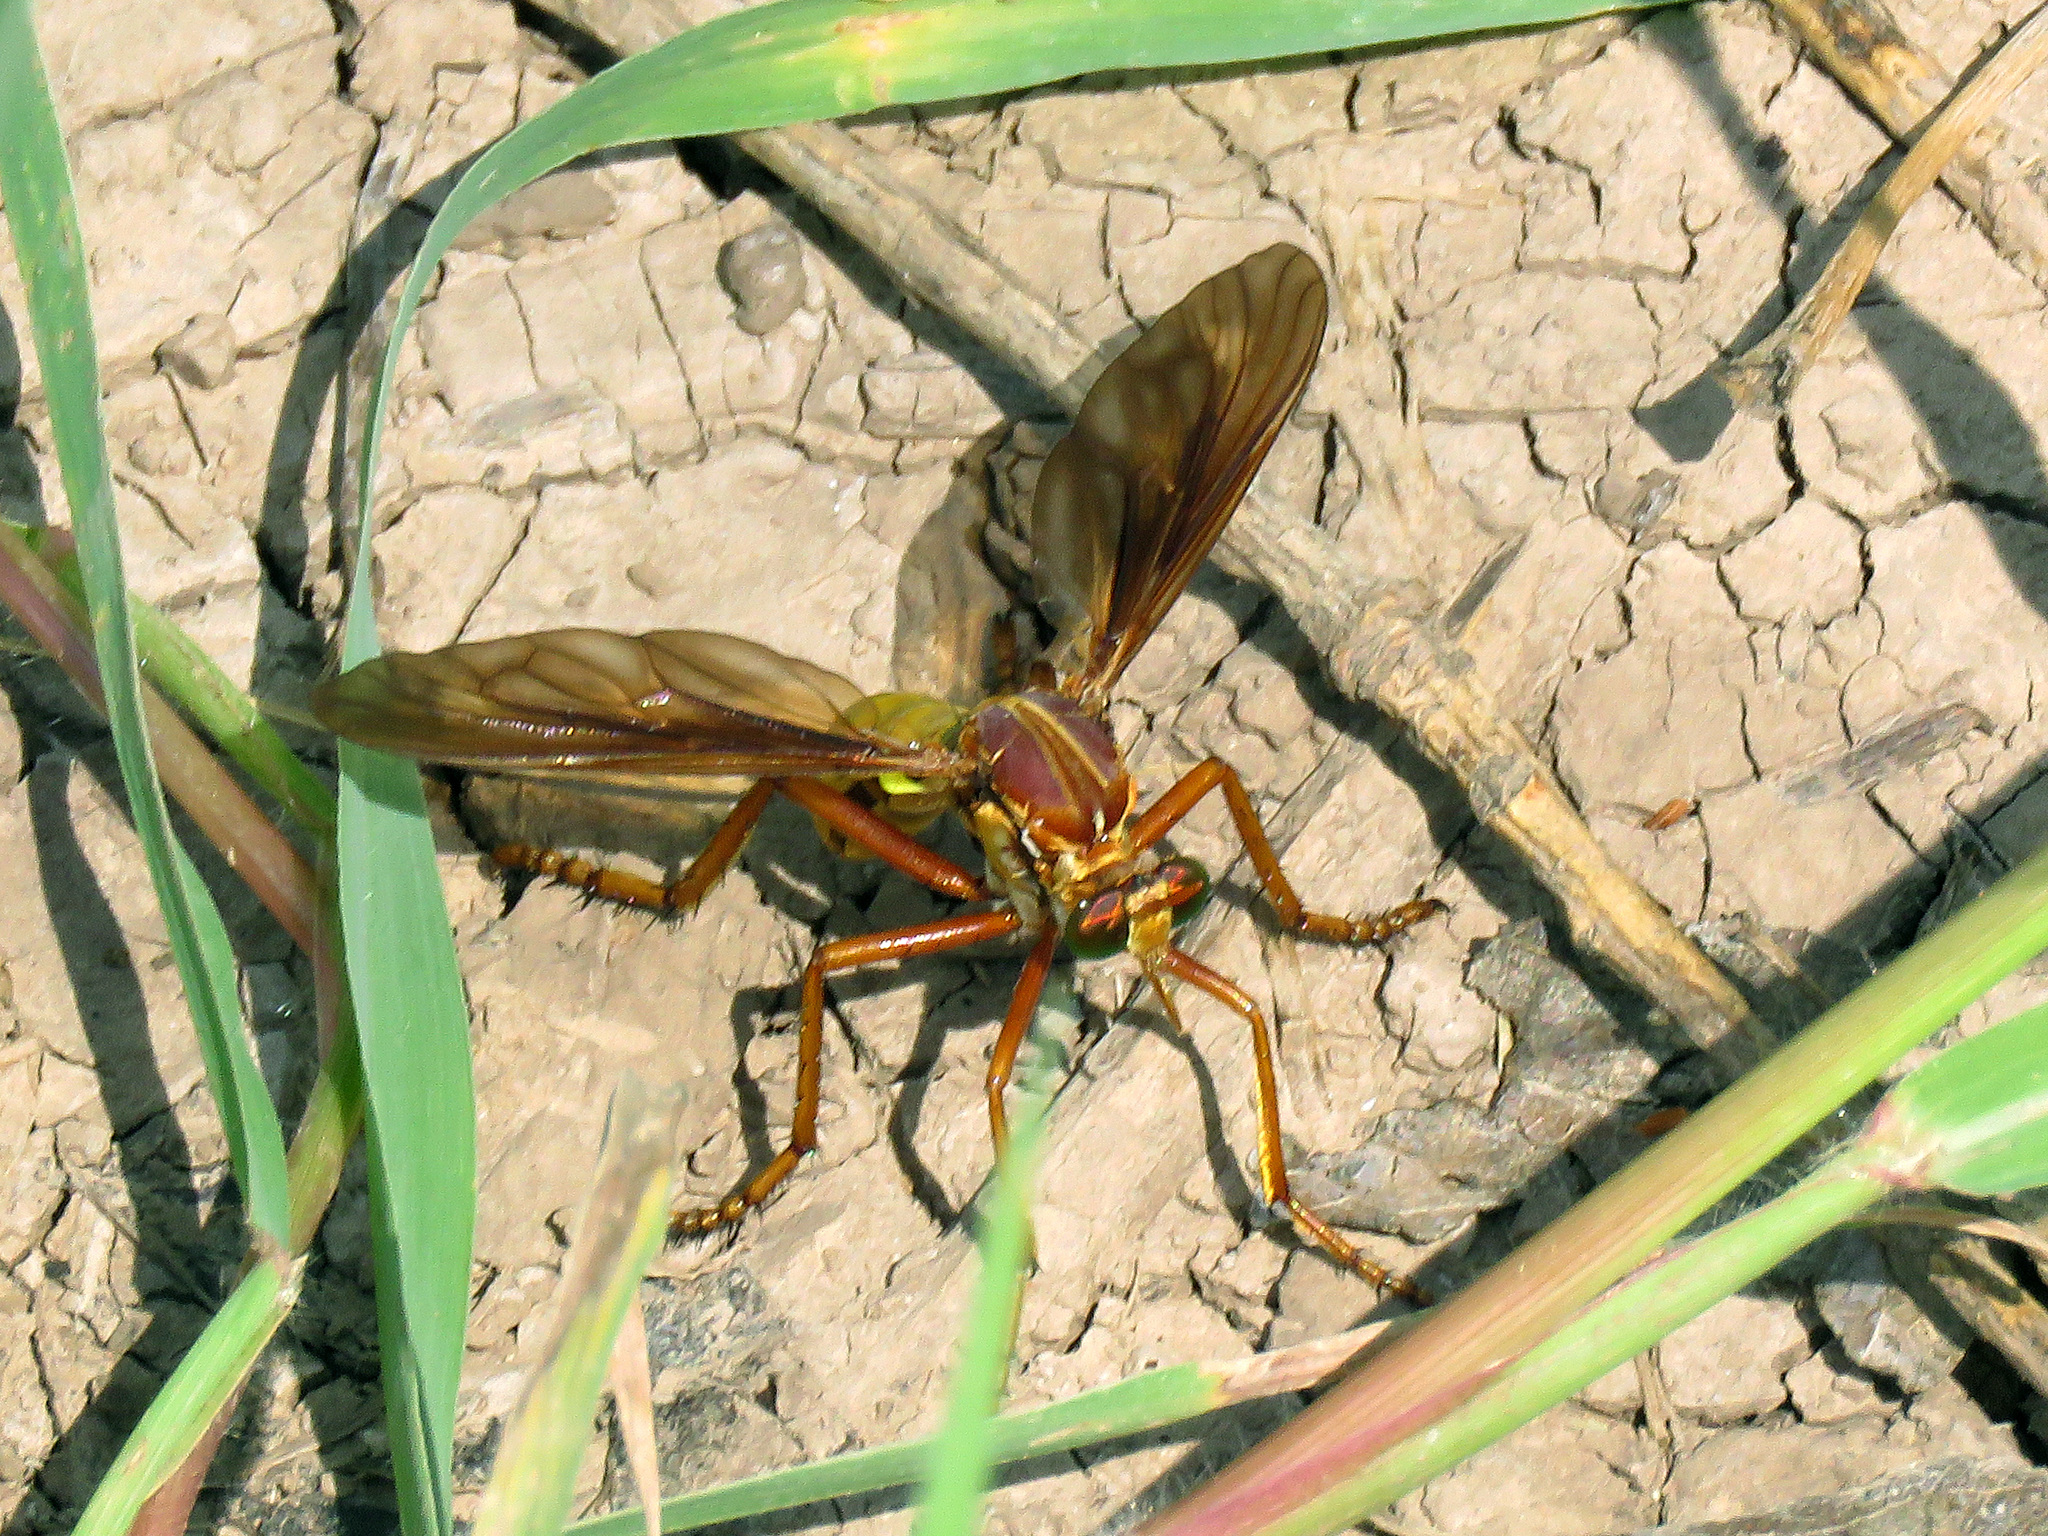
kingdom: Animalia
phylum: Arthropoda
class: Insecta
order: Diptera
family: Asilidae
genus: Blepharepium
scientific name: Blepharepium
